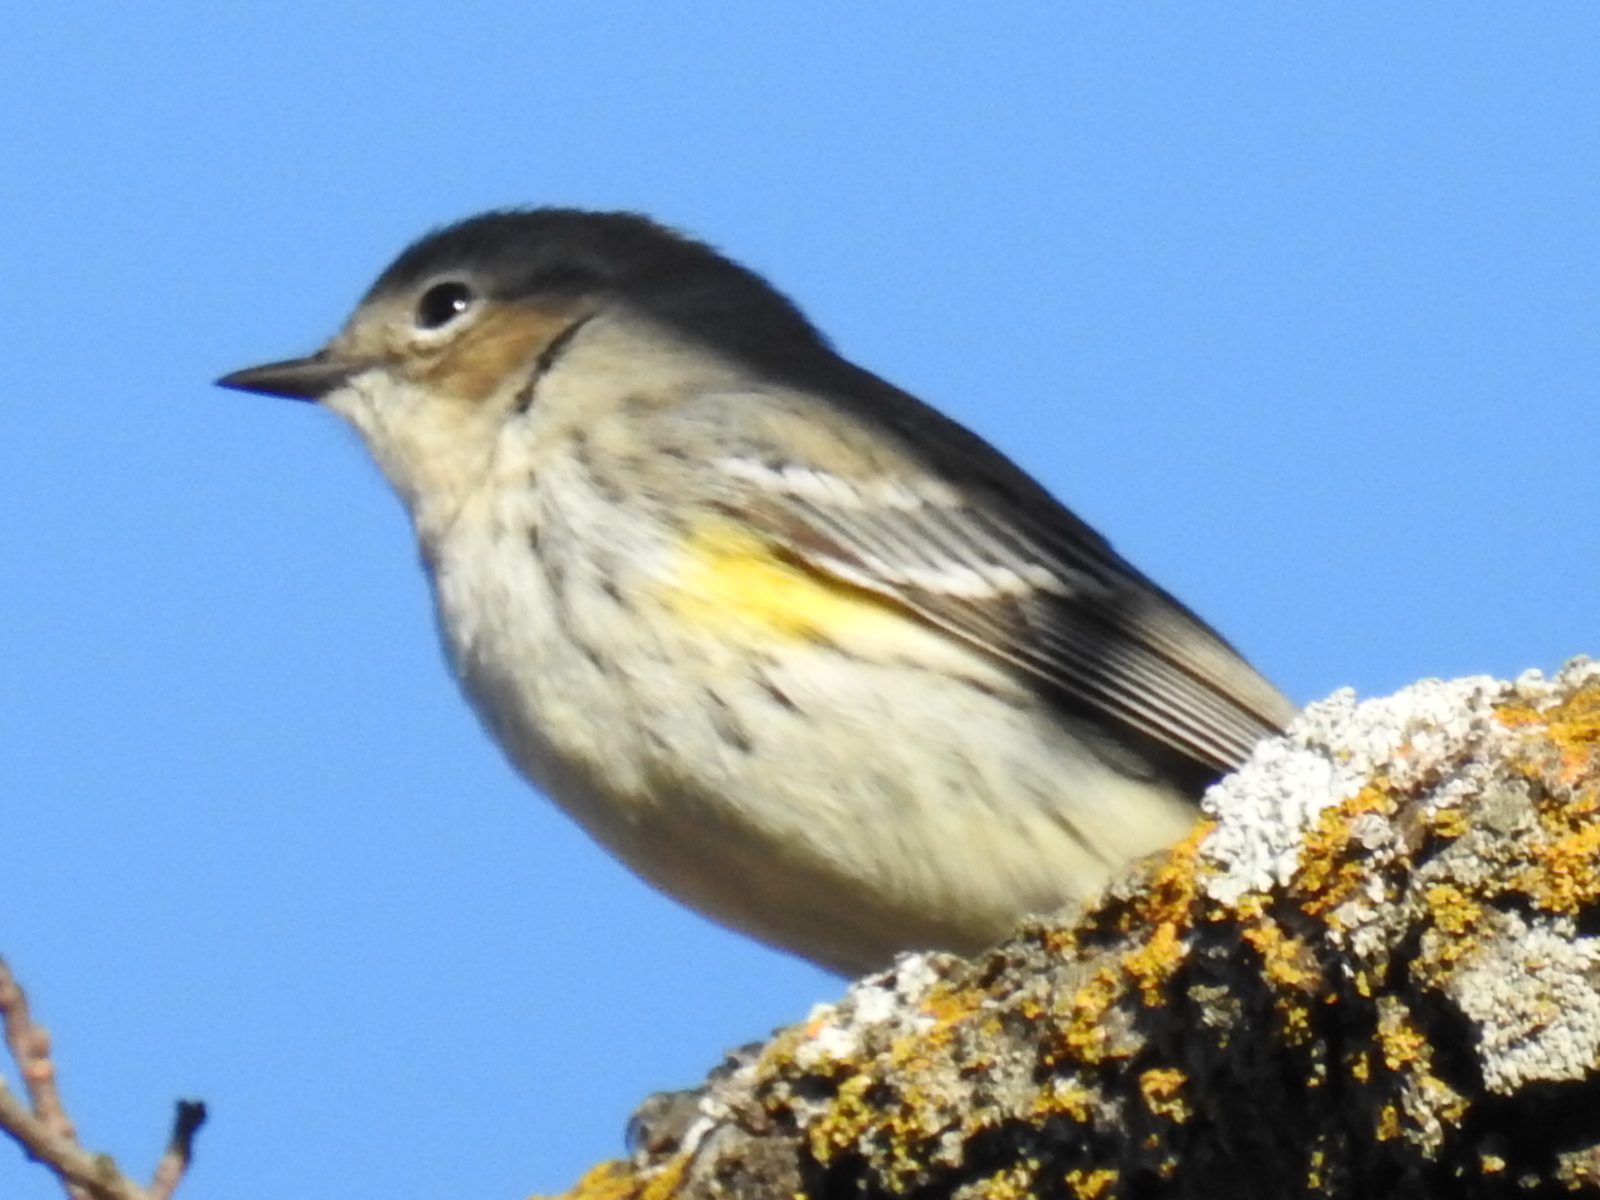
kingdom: Animalia
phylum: Chordata
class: Aves
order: Passeriformes
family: Parulidae
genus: Setophaga
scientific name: Setophaga coronata
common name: Myrtle warbler
